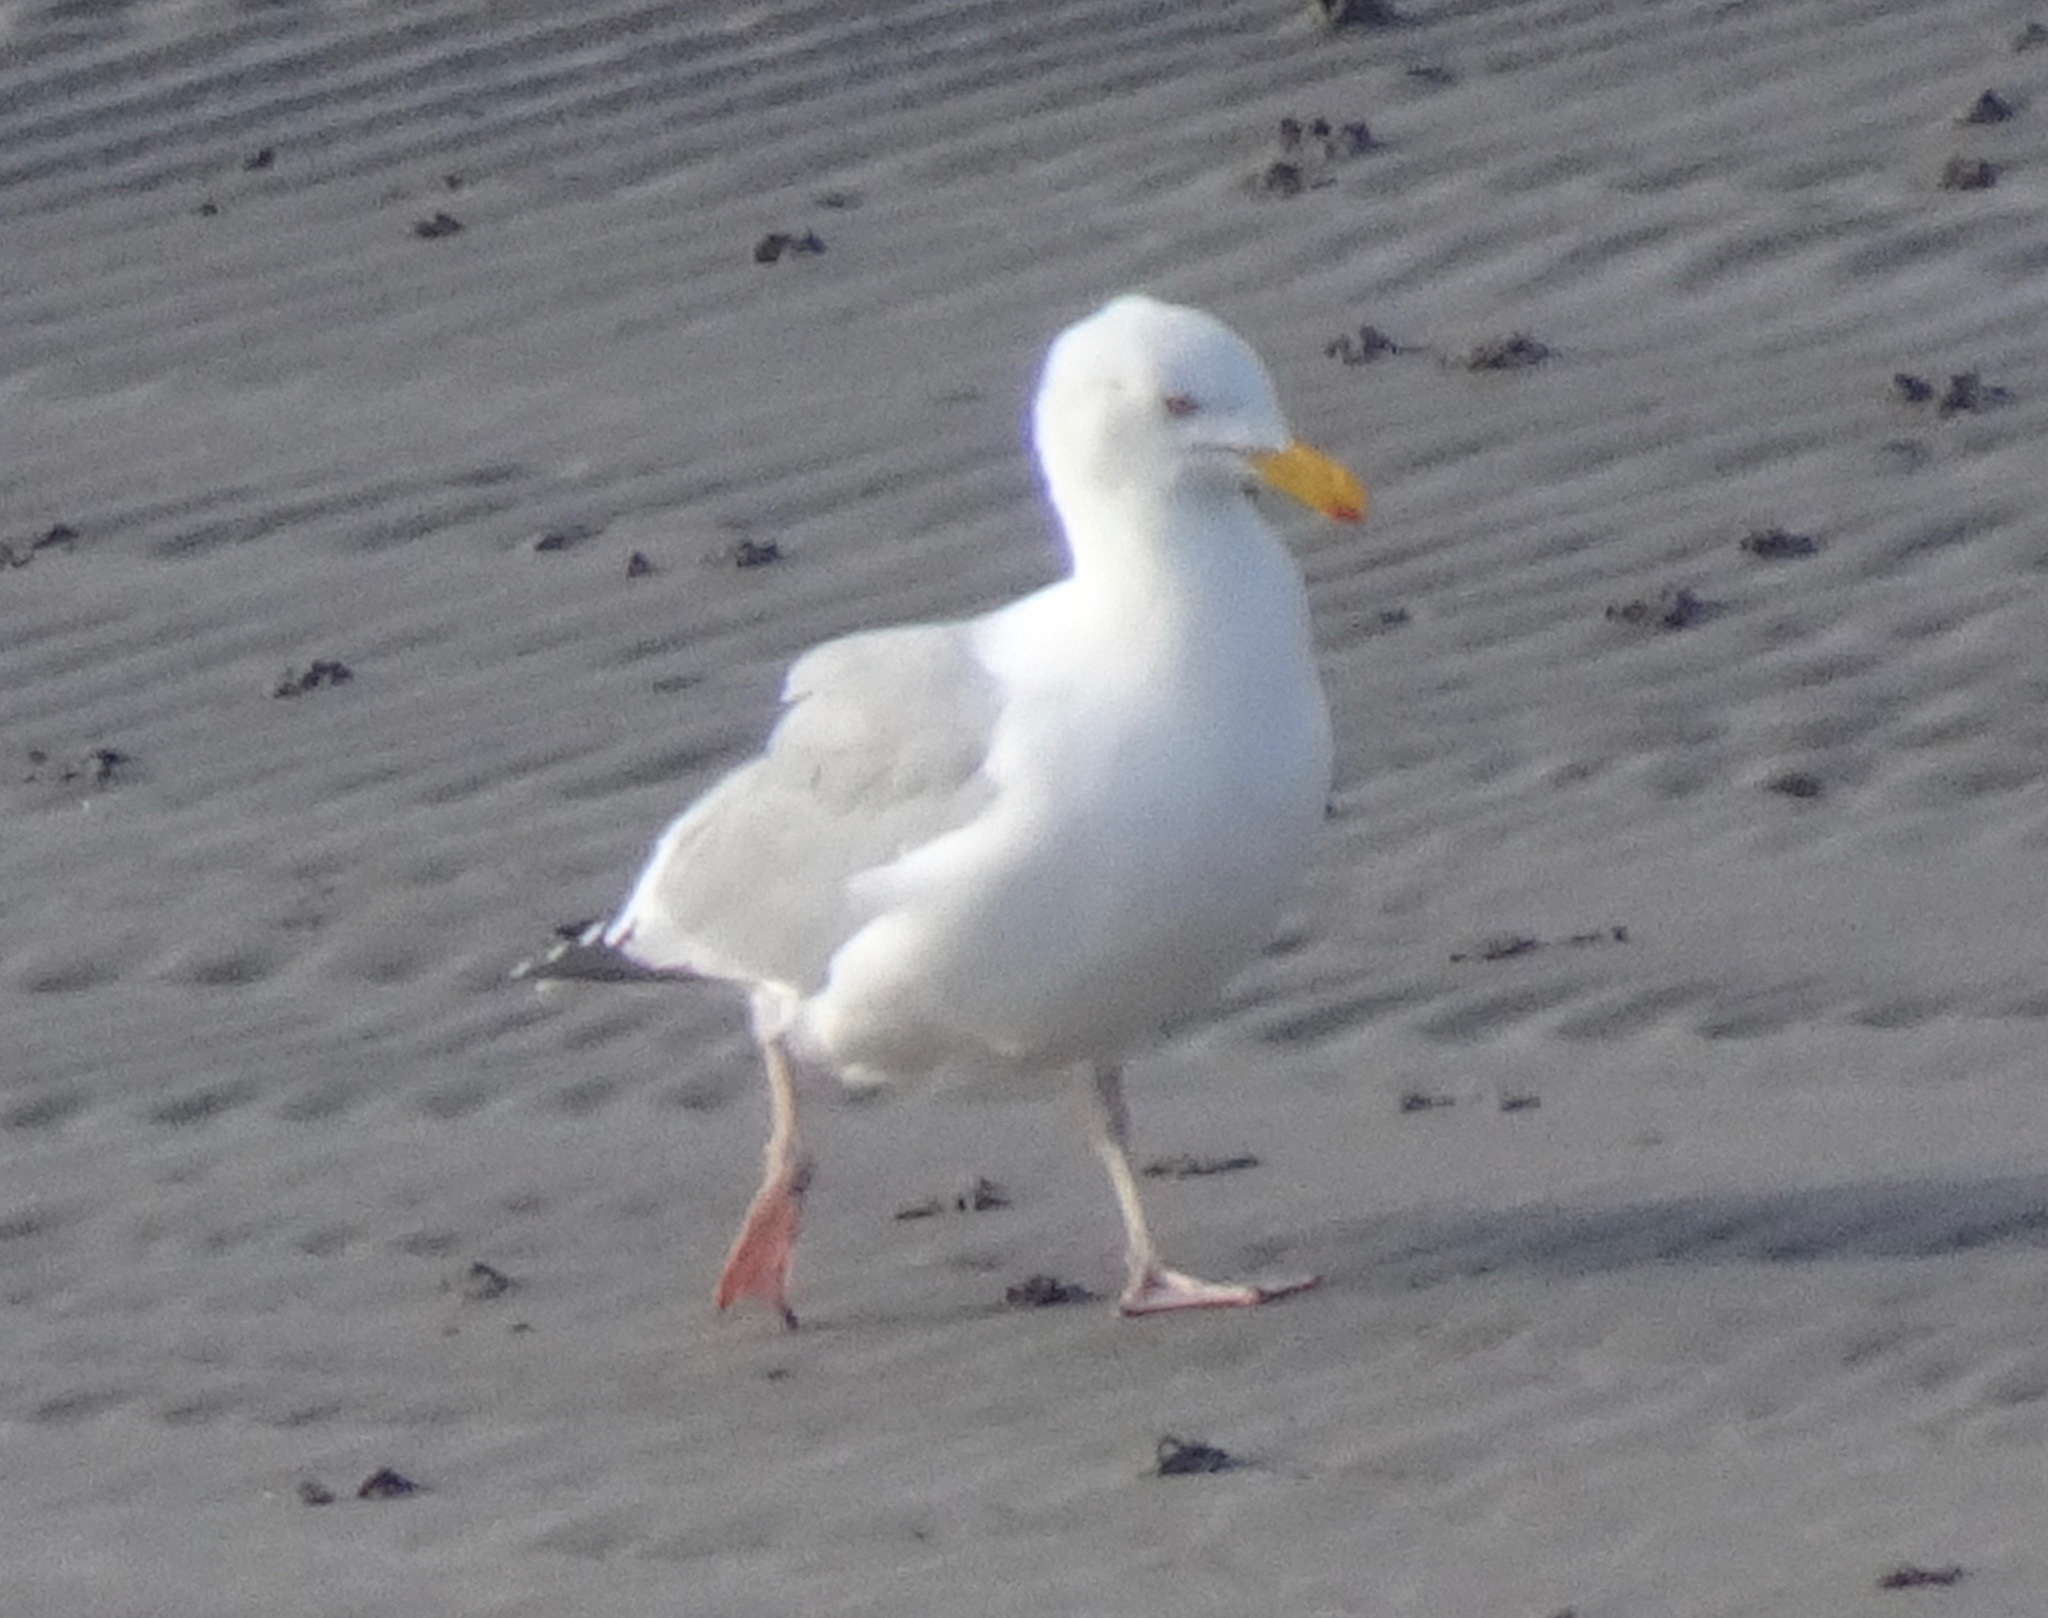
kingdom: Animalia
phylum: Chordata
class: Aves
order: Charadriiformes
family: Laridae
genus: Larus
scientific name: Larus argentatus
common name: Herring gull
